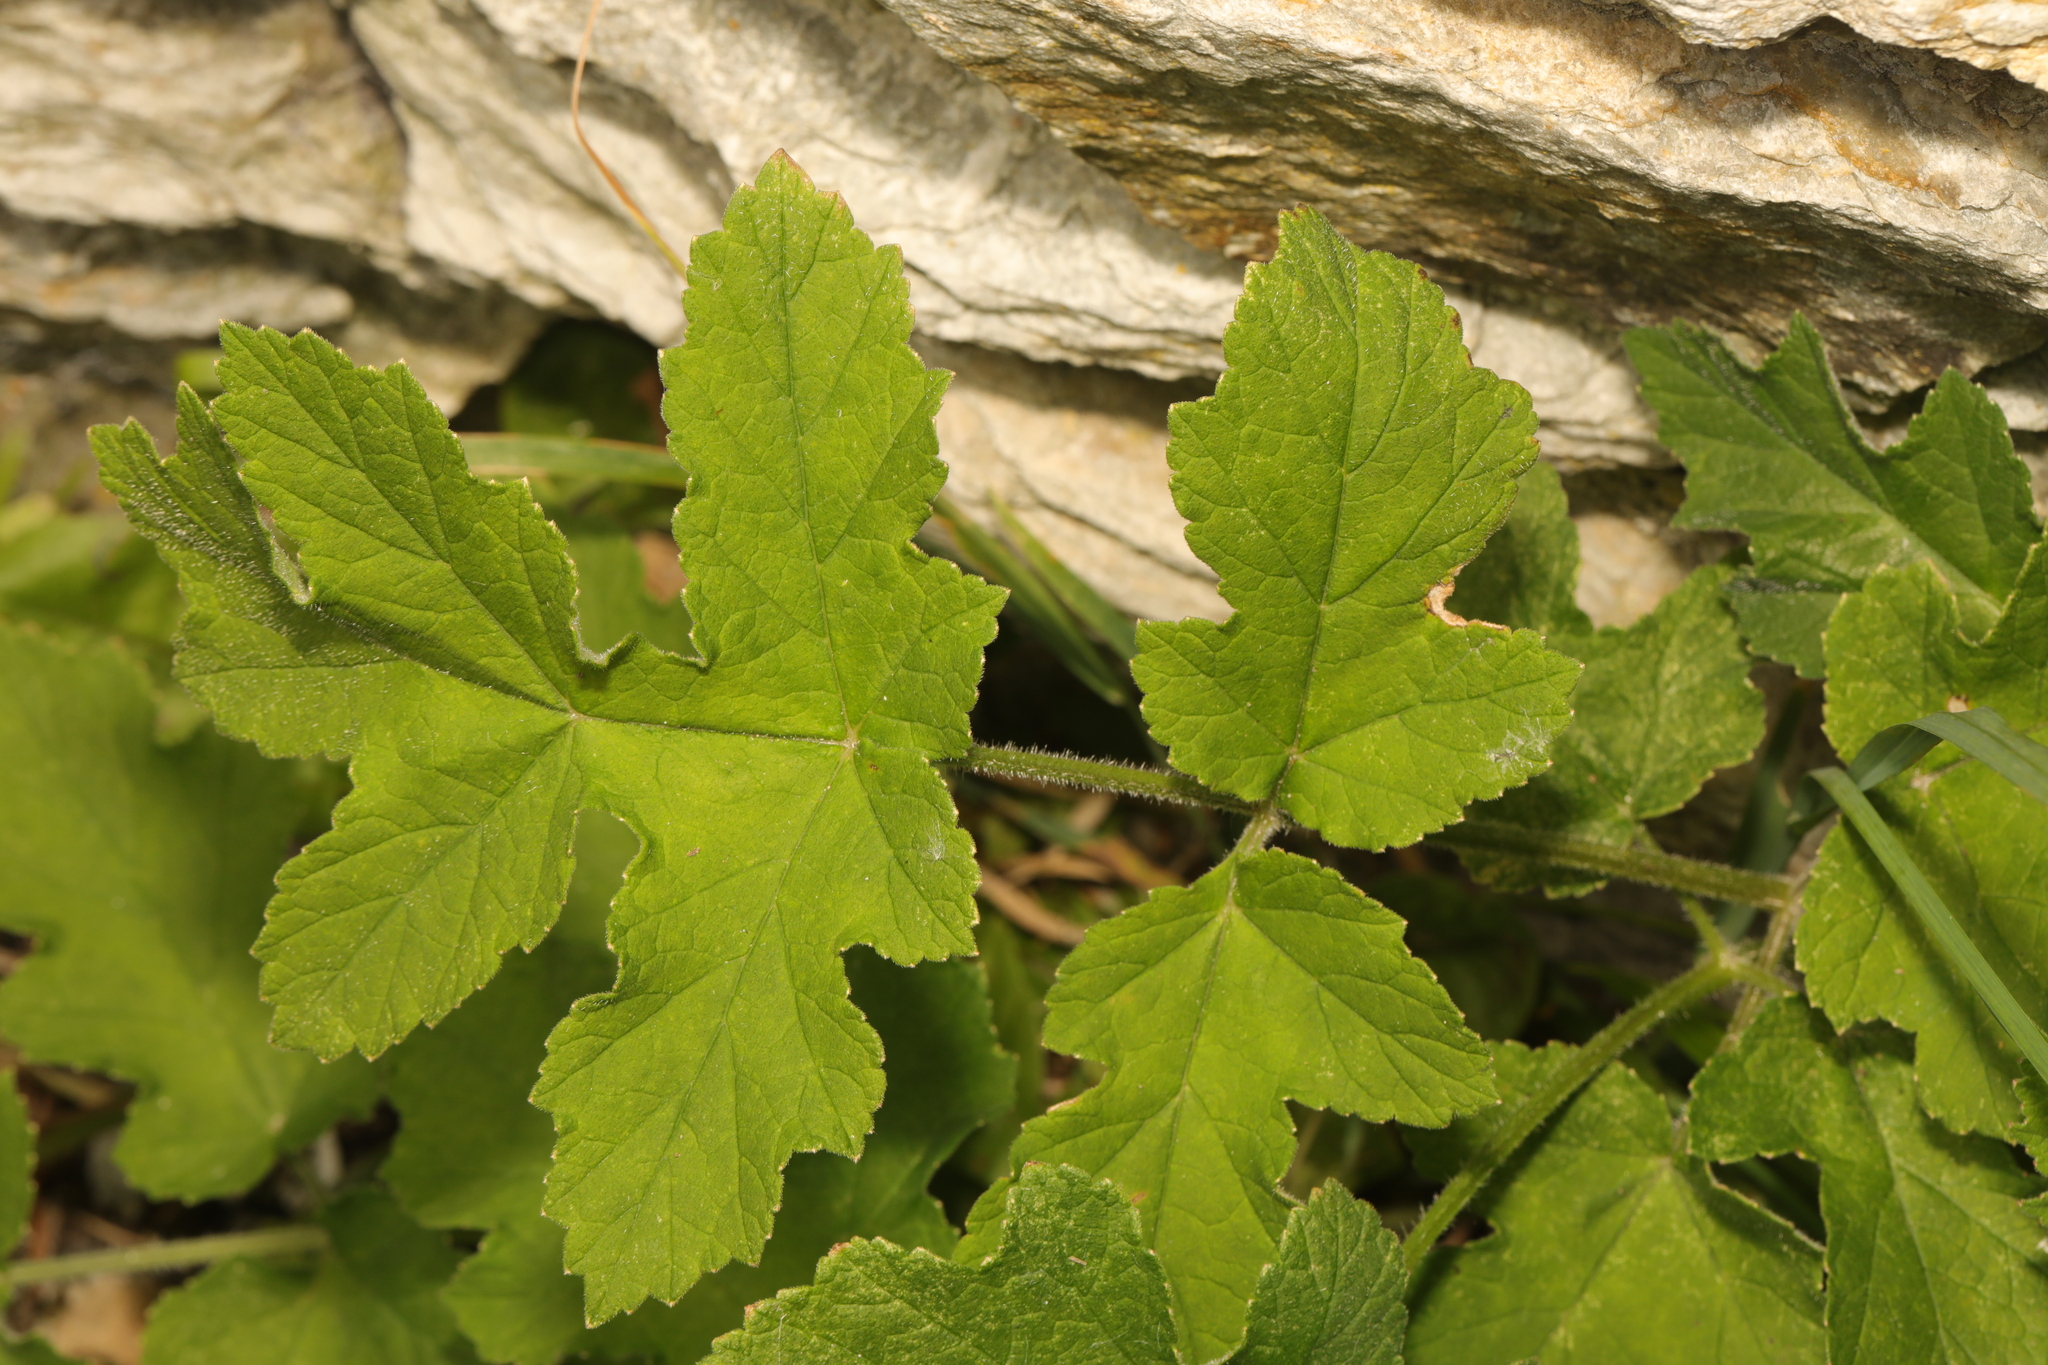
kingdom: Plantae
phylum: Tracheophyta
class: Magnoliopsida
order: Apiales
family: Apiaceae
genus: Heracleum
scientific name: Heracleum sphondylium
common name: Hogweed
